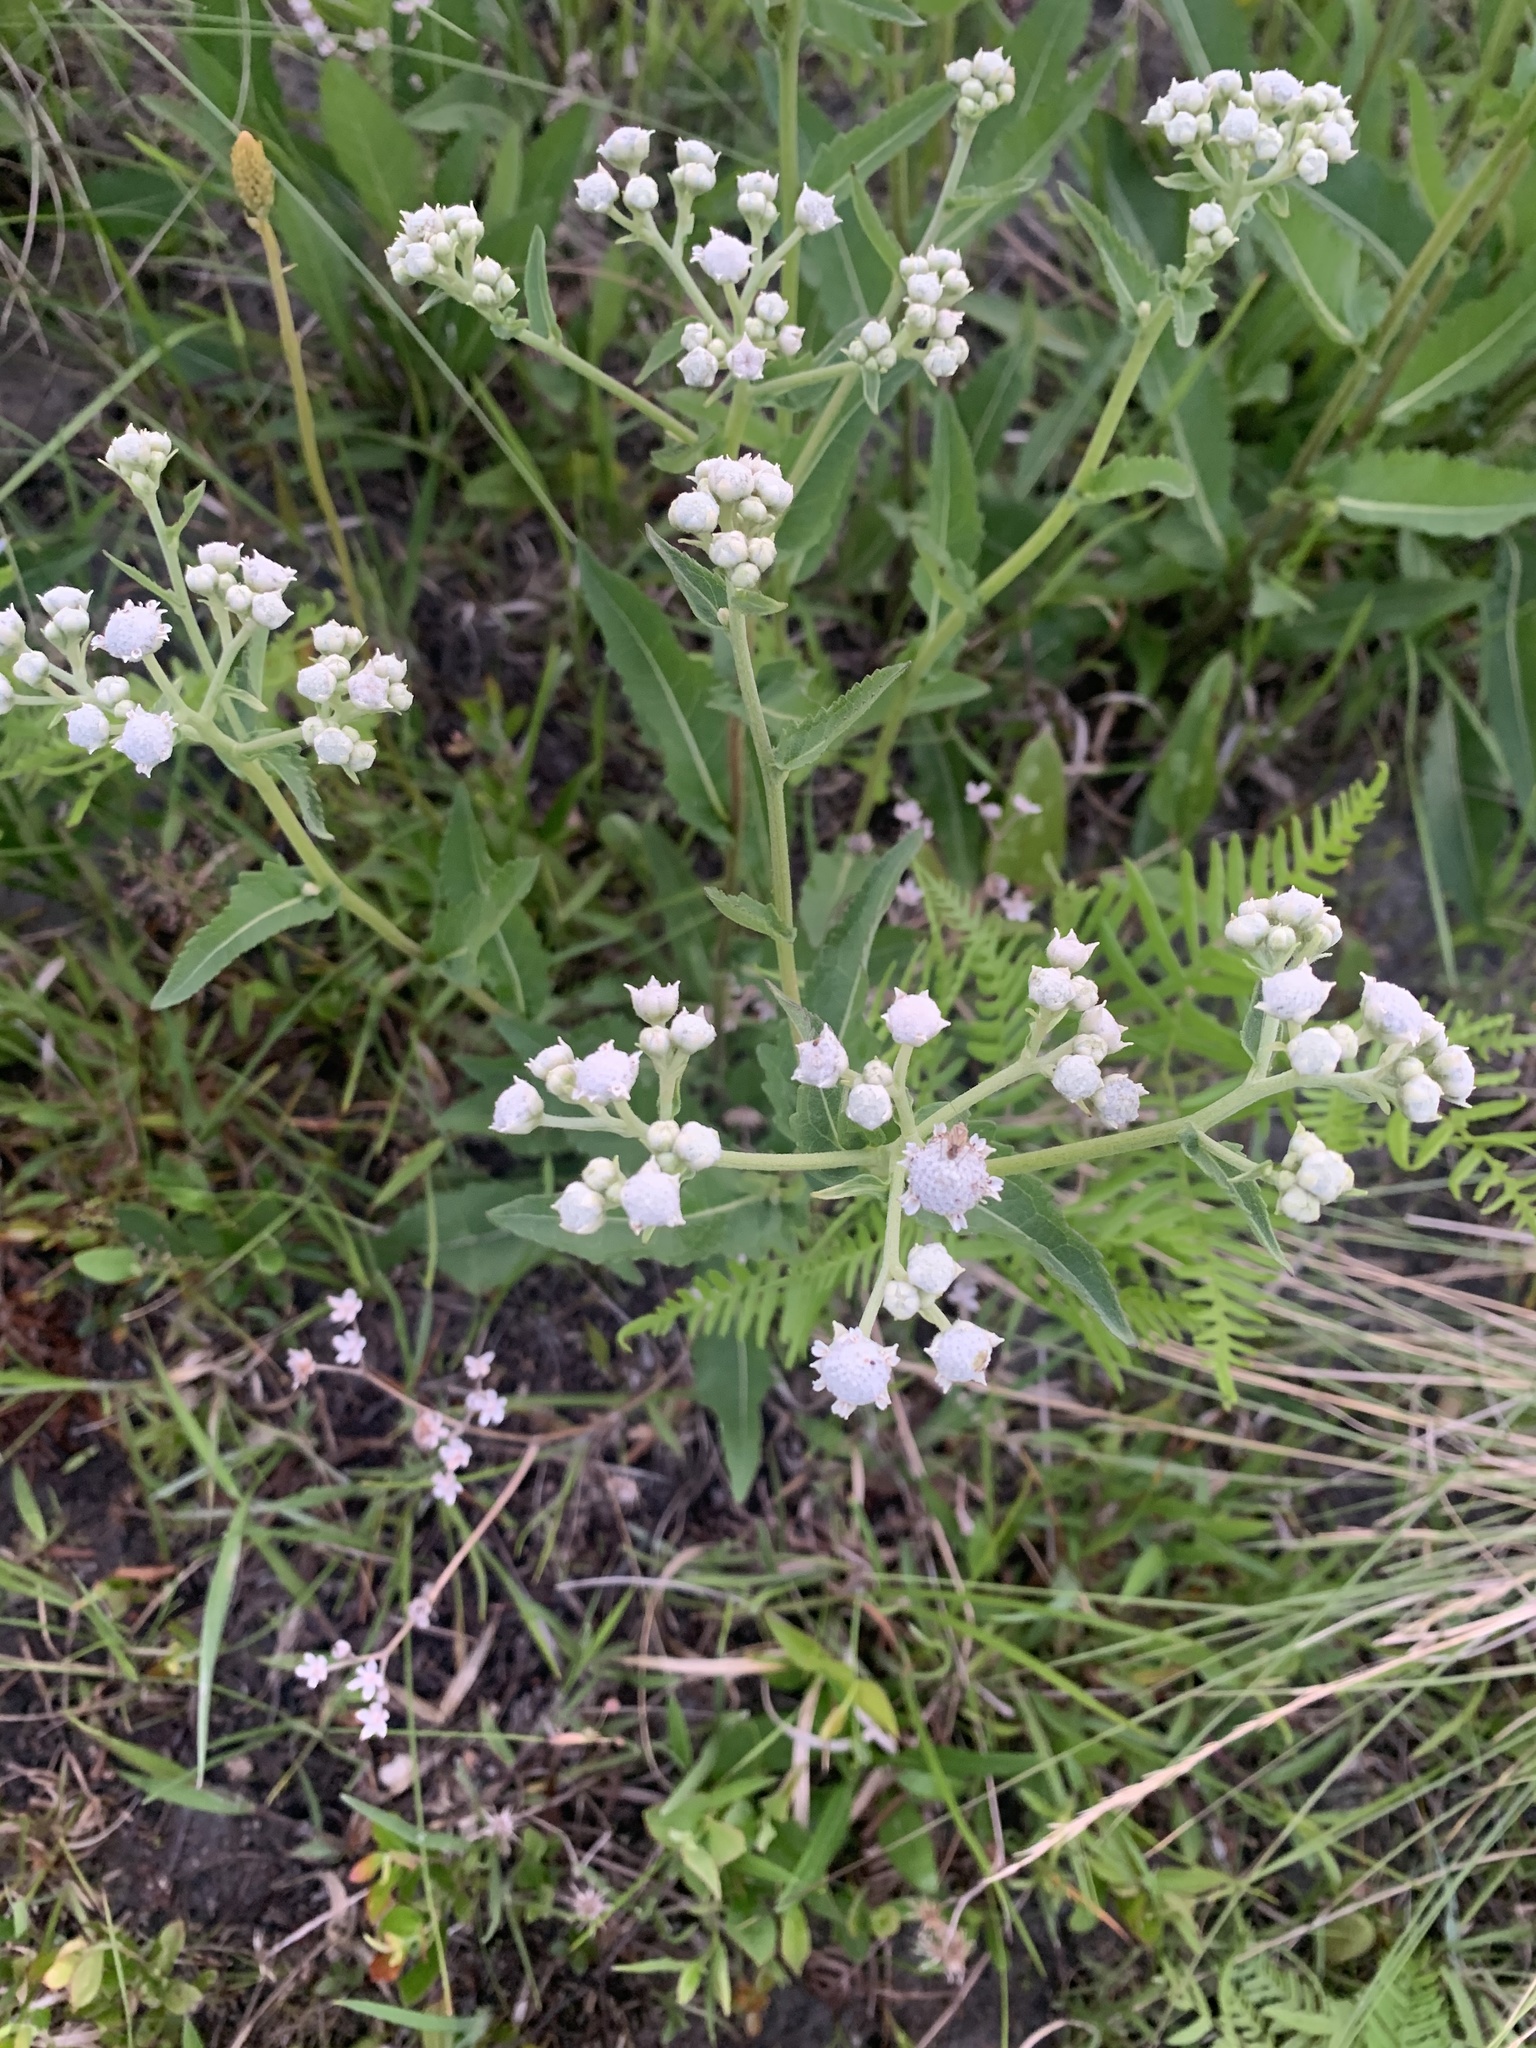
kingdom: Plantae
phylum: Tracheophyta
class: Magnoliopsida
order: Asterales
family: Asteraceae
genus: Parthenium
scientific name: Parthenium integrifolium
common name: American feverfew
